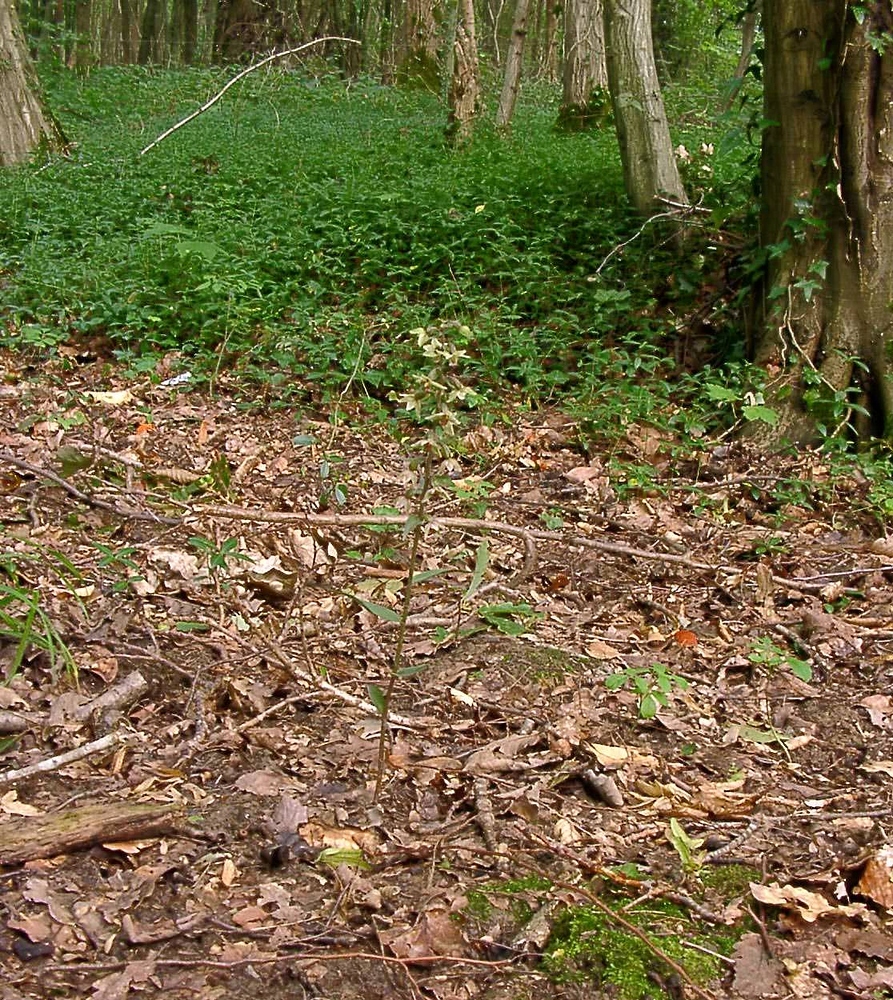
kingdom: Plantae
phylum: Tracheophyta
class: Liliopsida
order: Asparagales
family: Orchidaceae
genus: Epipactis
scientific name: Epipactis purpurata
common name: Violet helleborine
